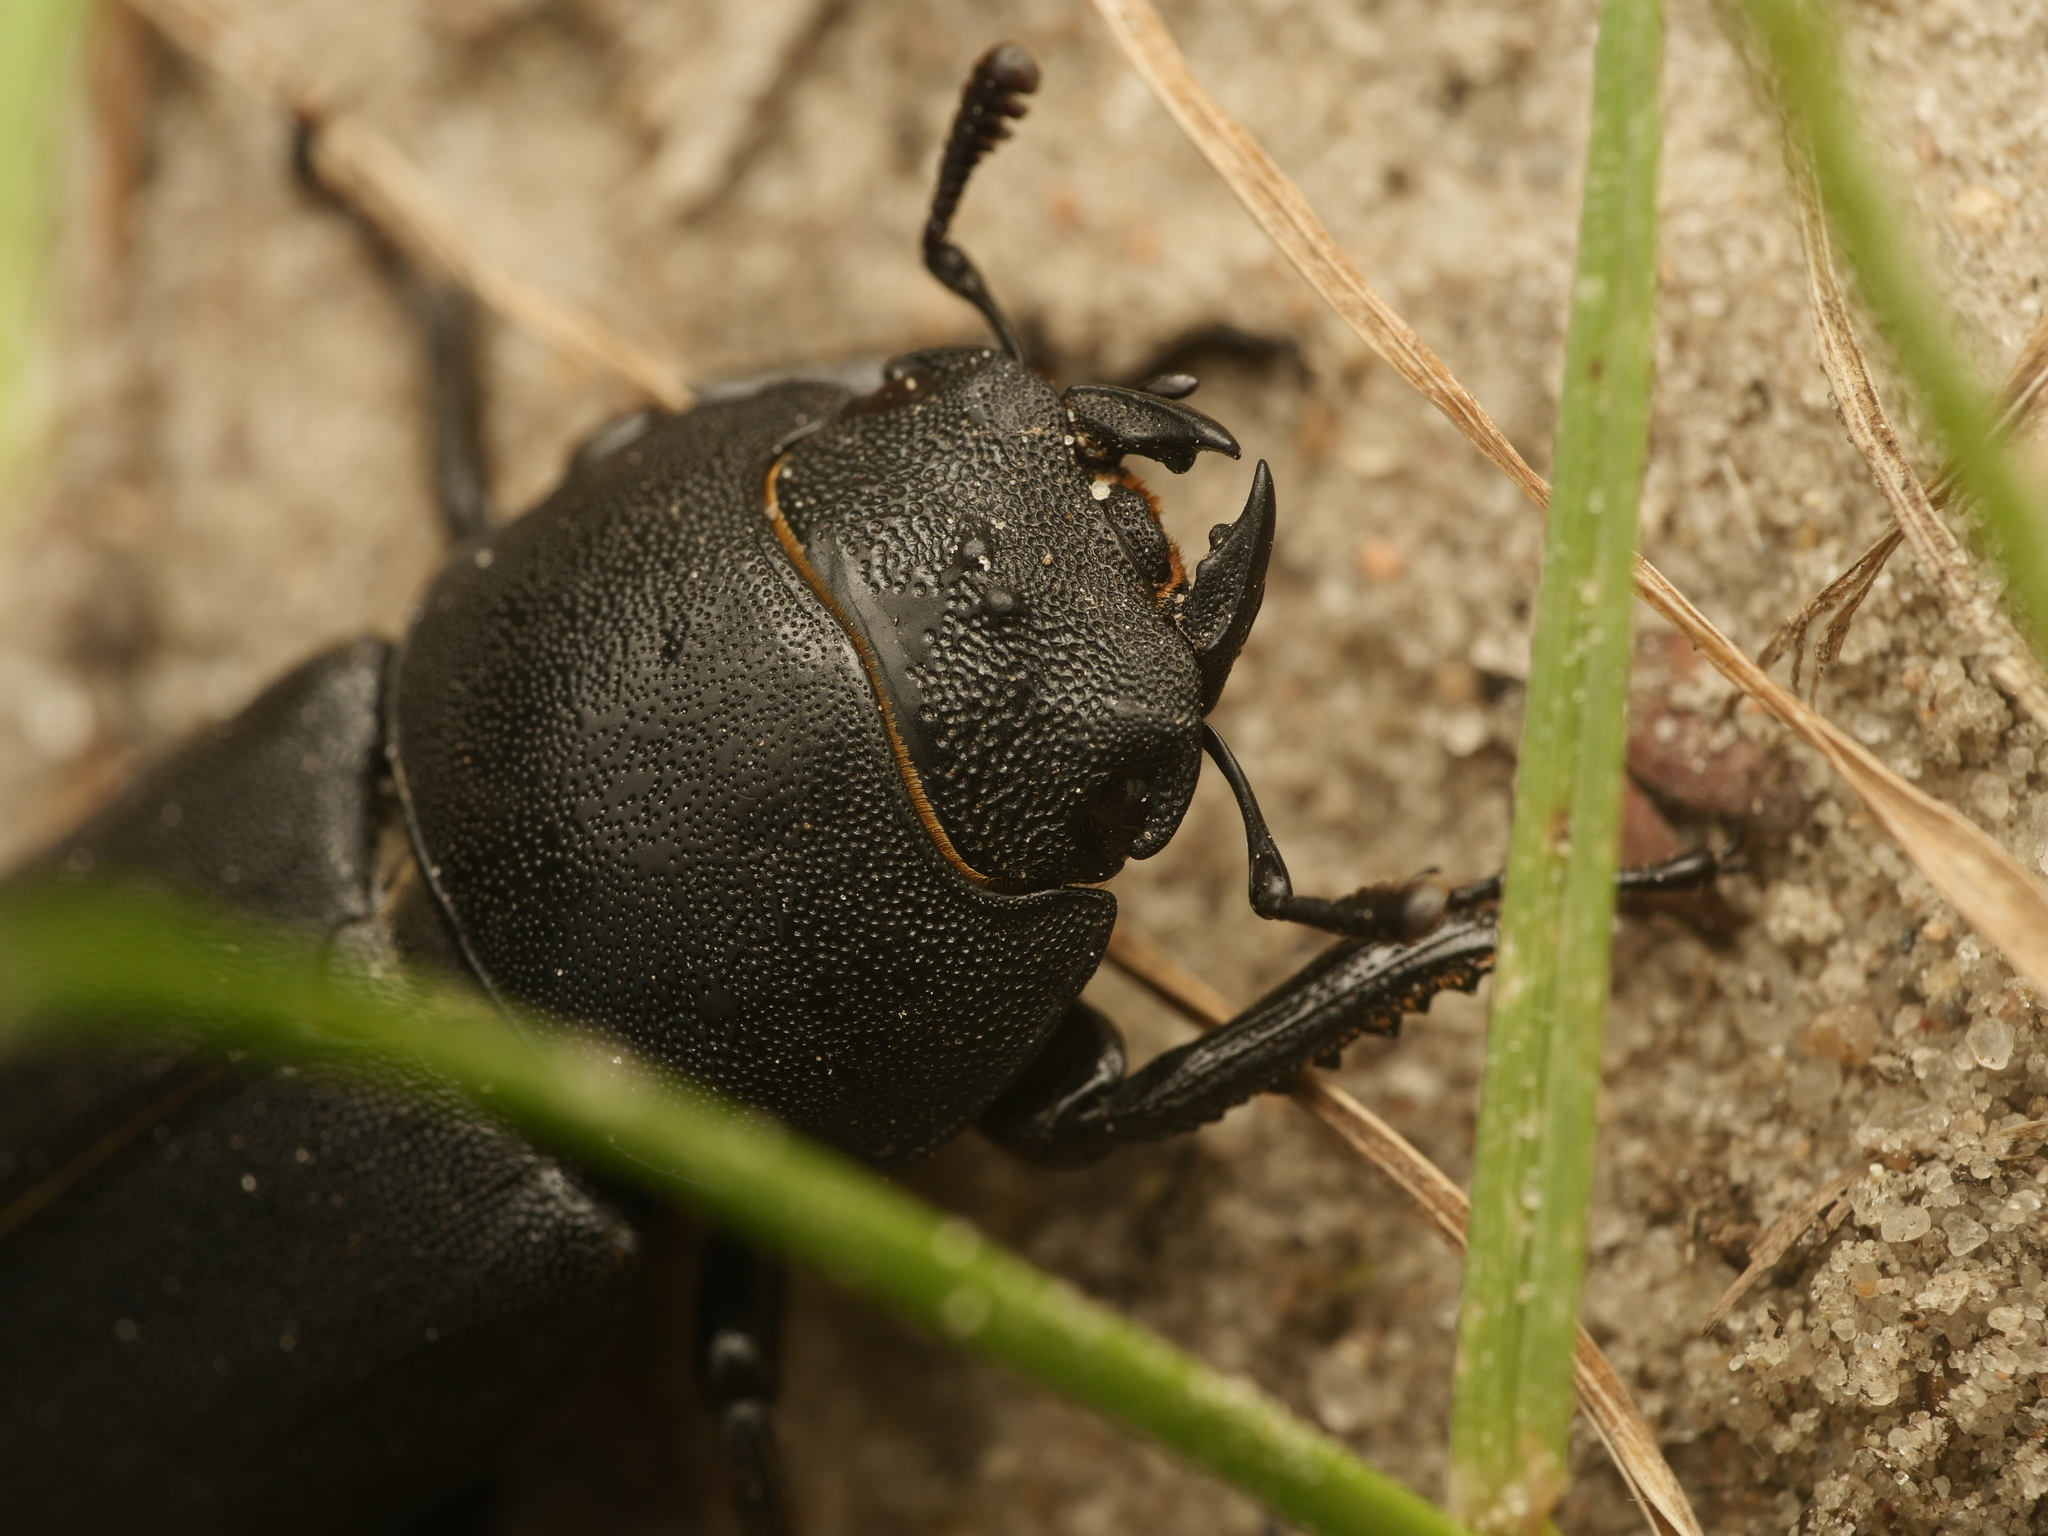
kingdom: Animalia
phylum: Arthropoda
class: Insecta
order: Coleoptera
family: Lucanidae
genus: Dorcus
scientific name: Dorcus parallelipipedus
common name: Lesser stag beetle
